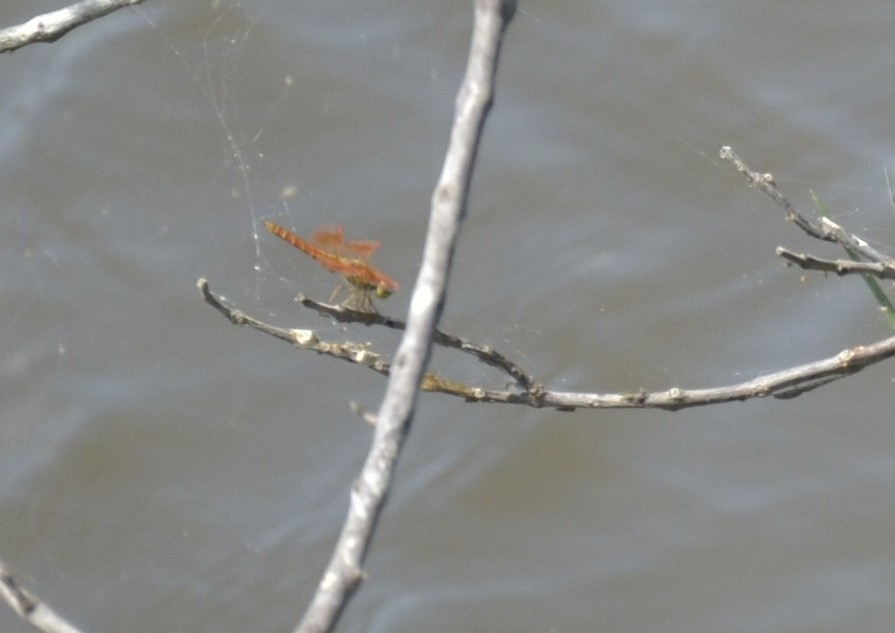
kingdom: Animalia
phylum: Arthropoda
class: Insecta
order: Odonata
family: Libellulidae
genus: Brachythemis
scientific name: Brachythemis contaminata
